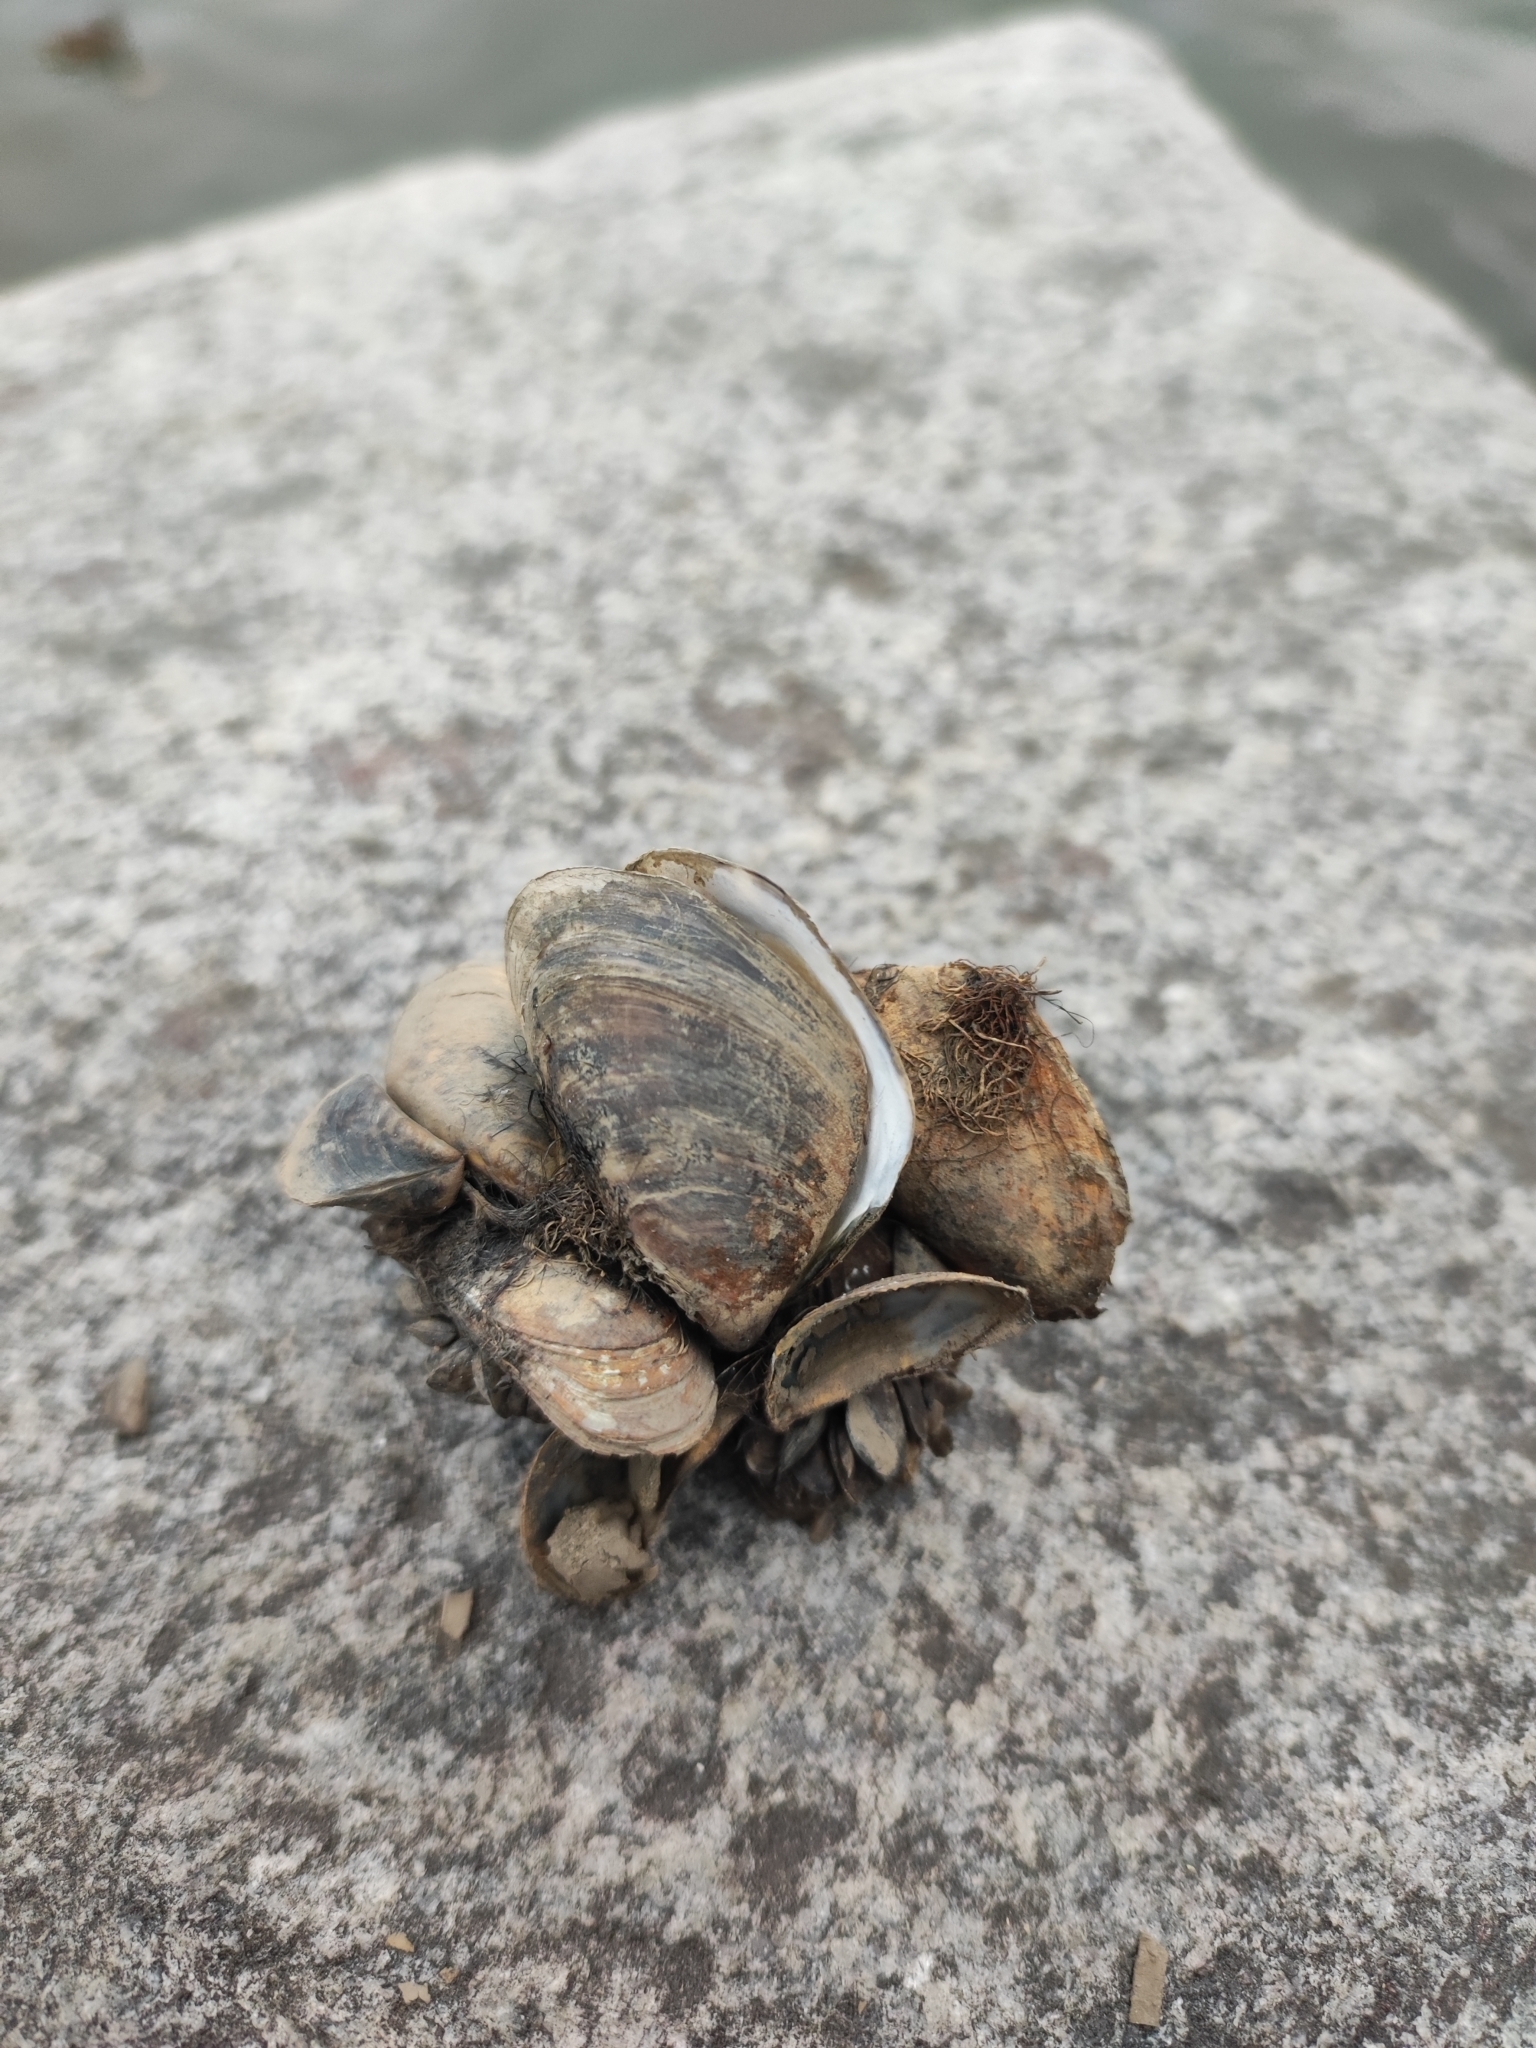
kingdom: Animalia
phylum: Mollusca
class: Bivalvia
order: Myida
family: Dreissenidae
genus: Dreissena
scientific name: Dreissena bugensis
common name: Quagga mussel
